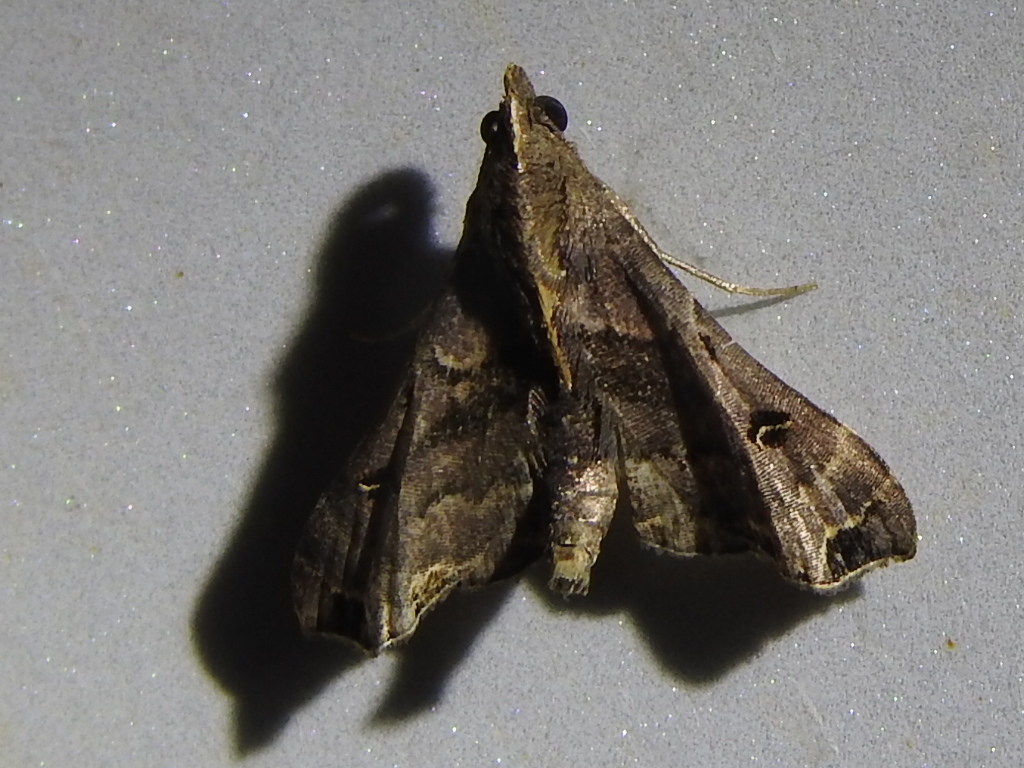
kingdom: Animalia
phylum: Arthropoda
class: Insecta
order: Lepidoptera
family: Erebidae
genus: Palthis
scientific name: Palthis asopialis
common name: Faint-spotted palthis moth
